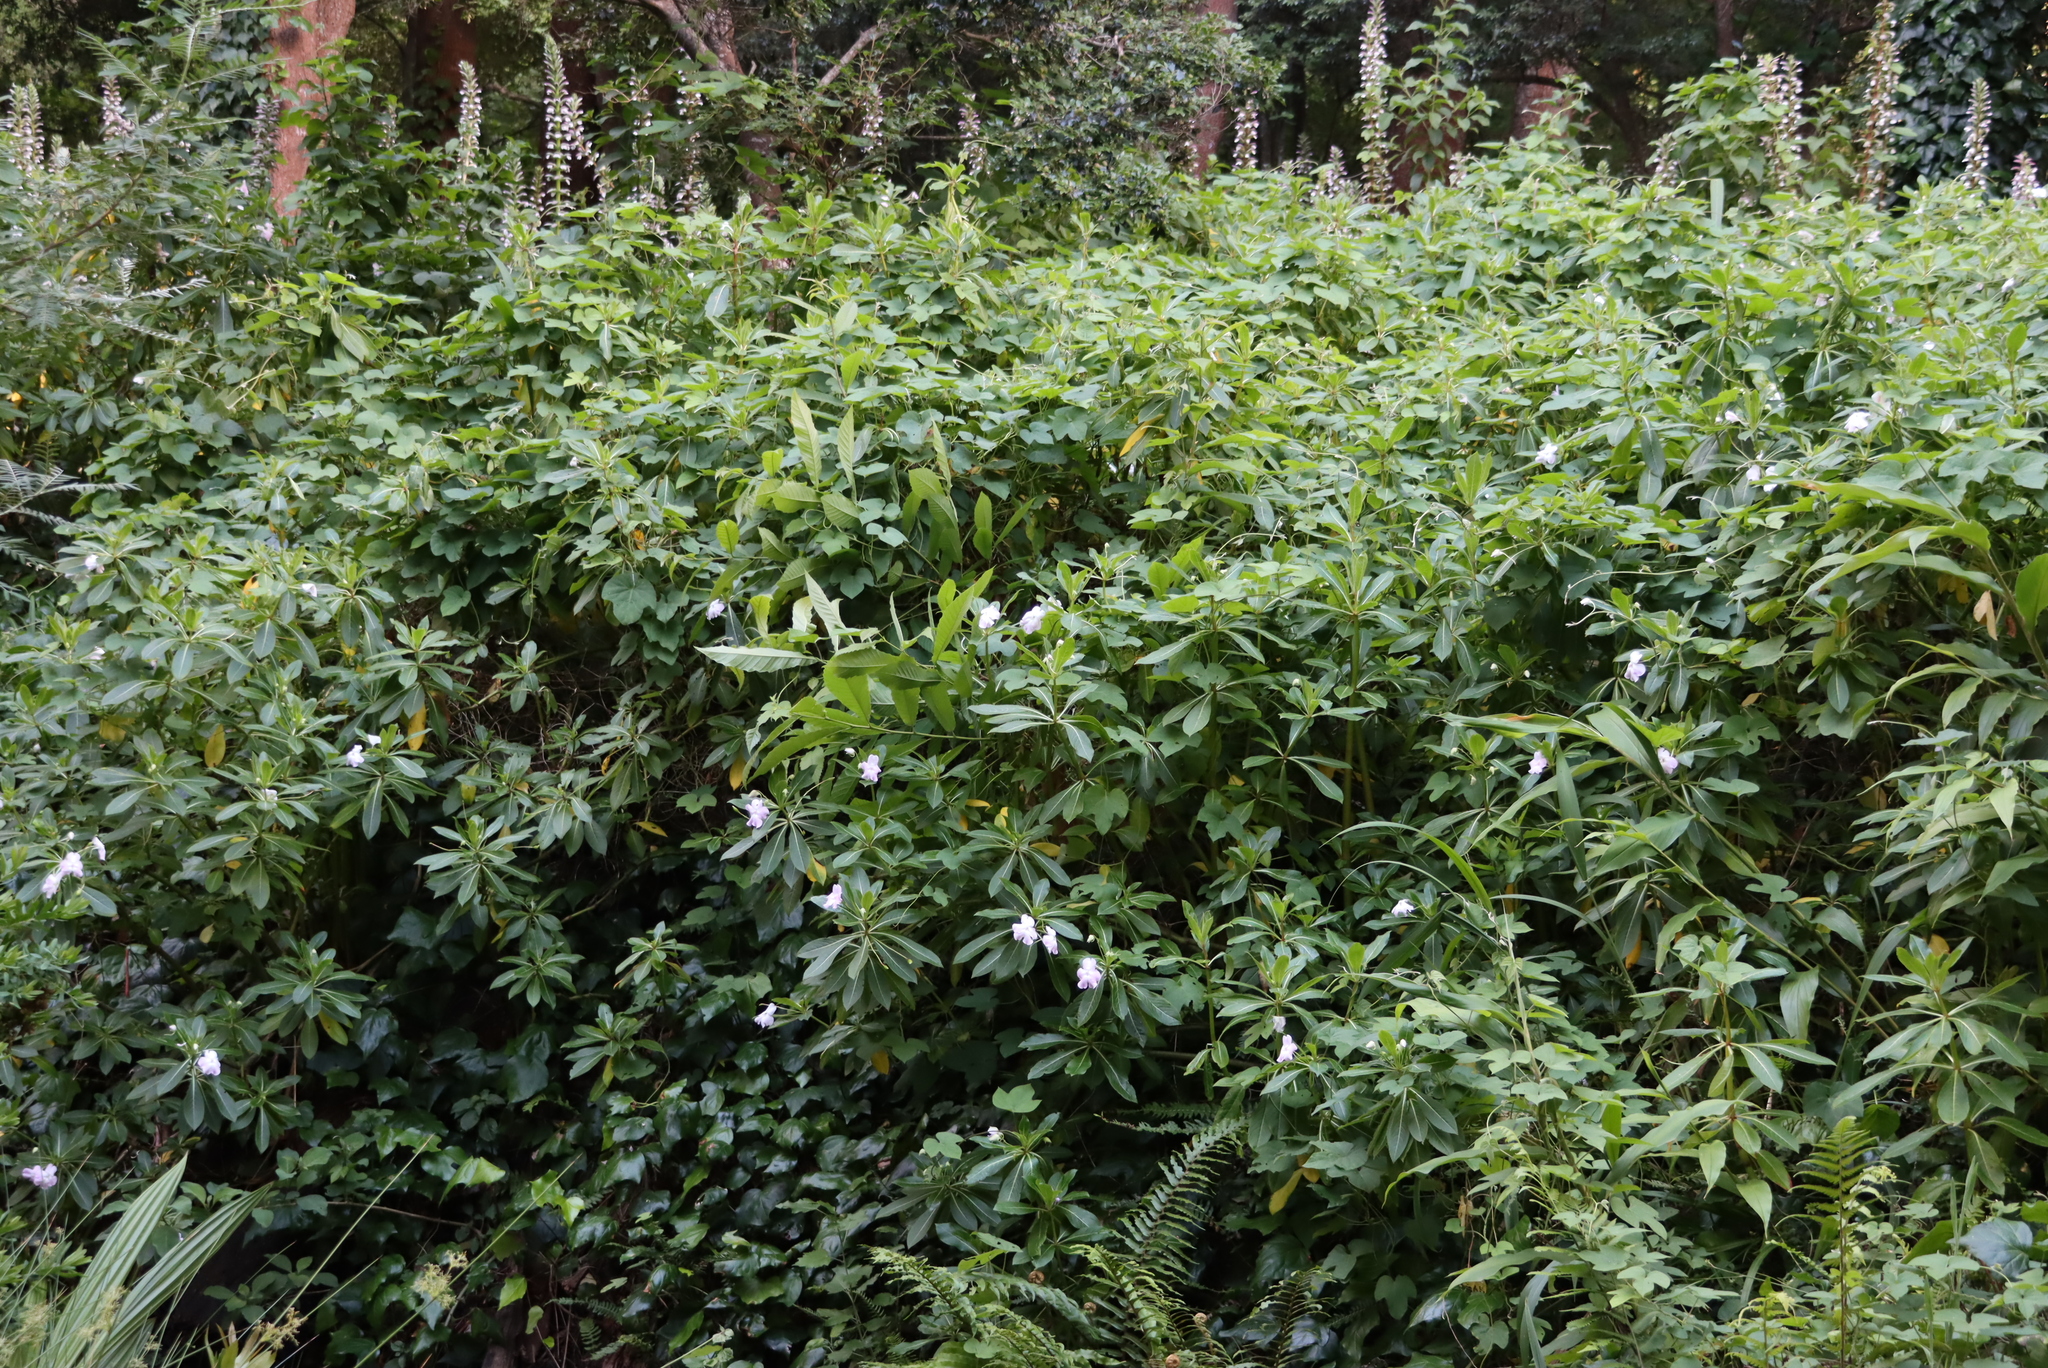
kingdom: Plantae
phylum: Tracheophyta
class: Magnoliopsida
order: Ericales
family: Balsaminaceae
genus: Impatiens
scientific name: Impatiens sodenii
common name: Oliver's touch-me-not
